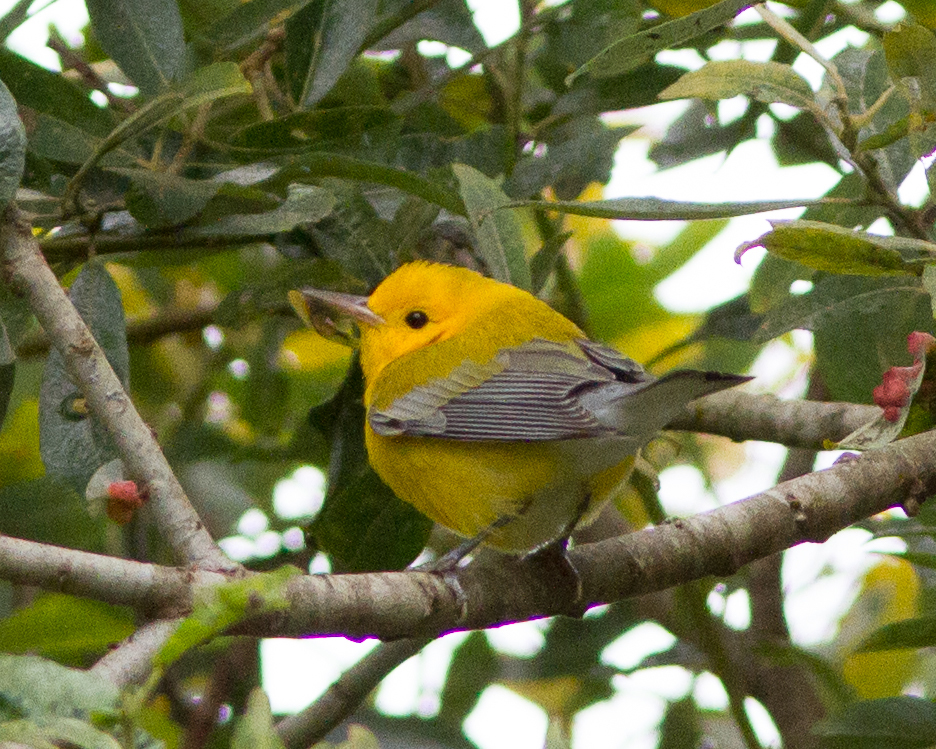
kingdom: Animalia
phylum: Chordata
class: Aves
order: Passeriformes
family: Parulidae
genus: Protonotaria
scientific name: Protonotaria citrea
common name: Prothonotary warbler
